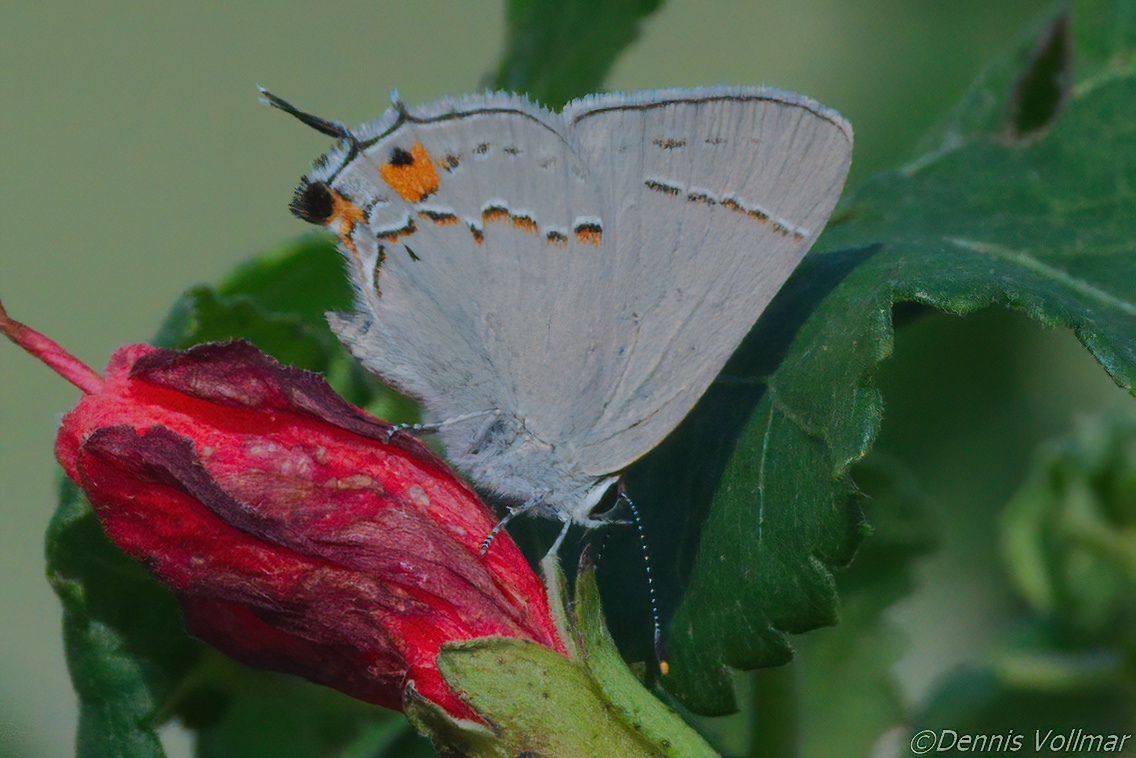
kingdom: Animalia
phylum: Arthropoda
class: Insecta
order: Lepidoptera
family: Lycaenidae
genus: Strymon
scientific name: Strymon melinus
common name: Gray hairstreak
